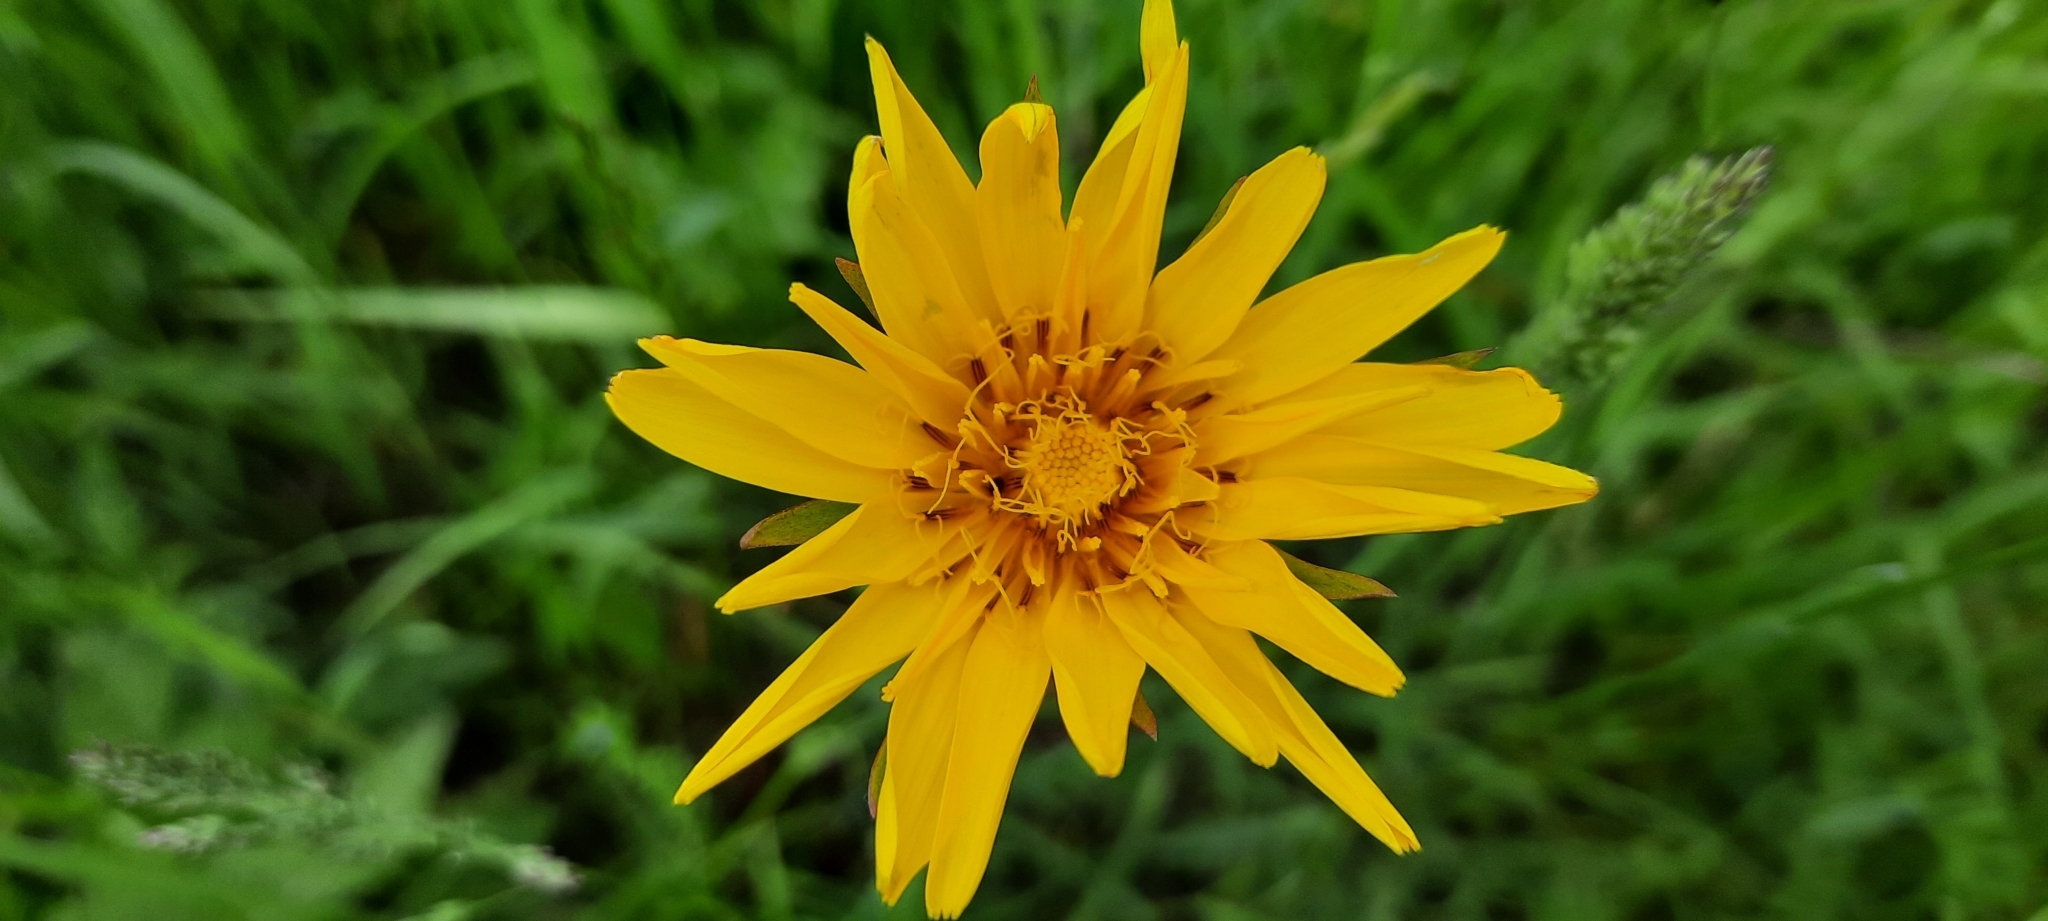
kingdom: Plantae
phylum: Tracheophyta
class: Magnoliopsida
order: Asterales
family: Asteraceae
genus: Tragopogon
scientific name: Tragopogon orientalis
